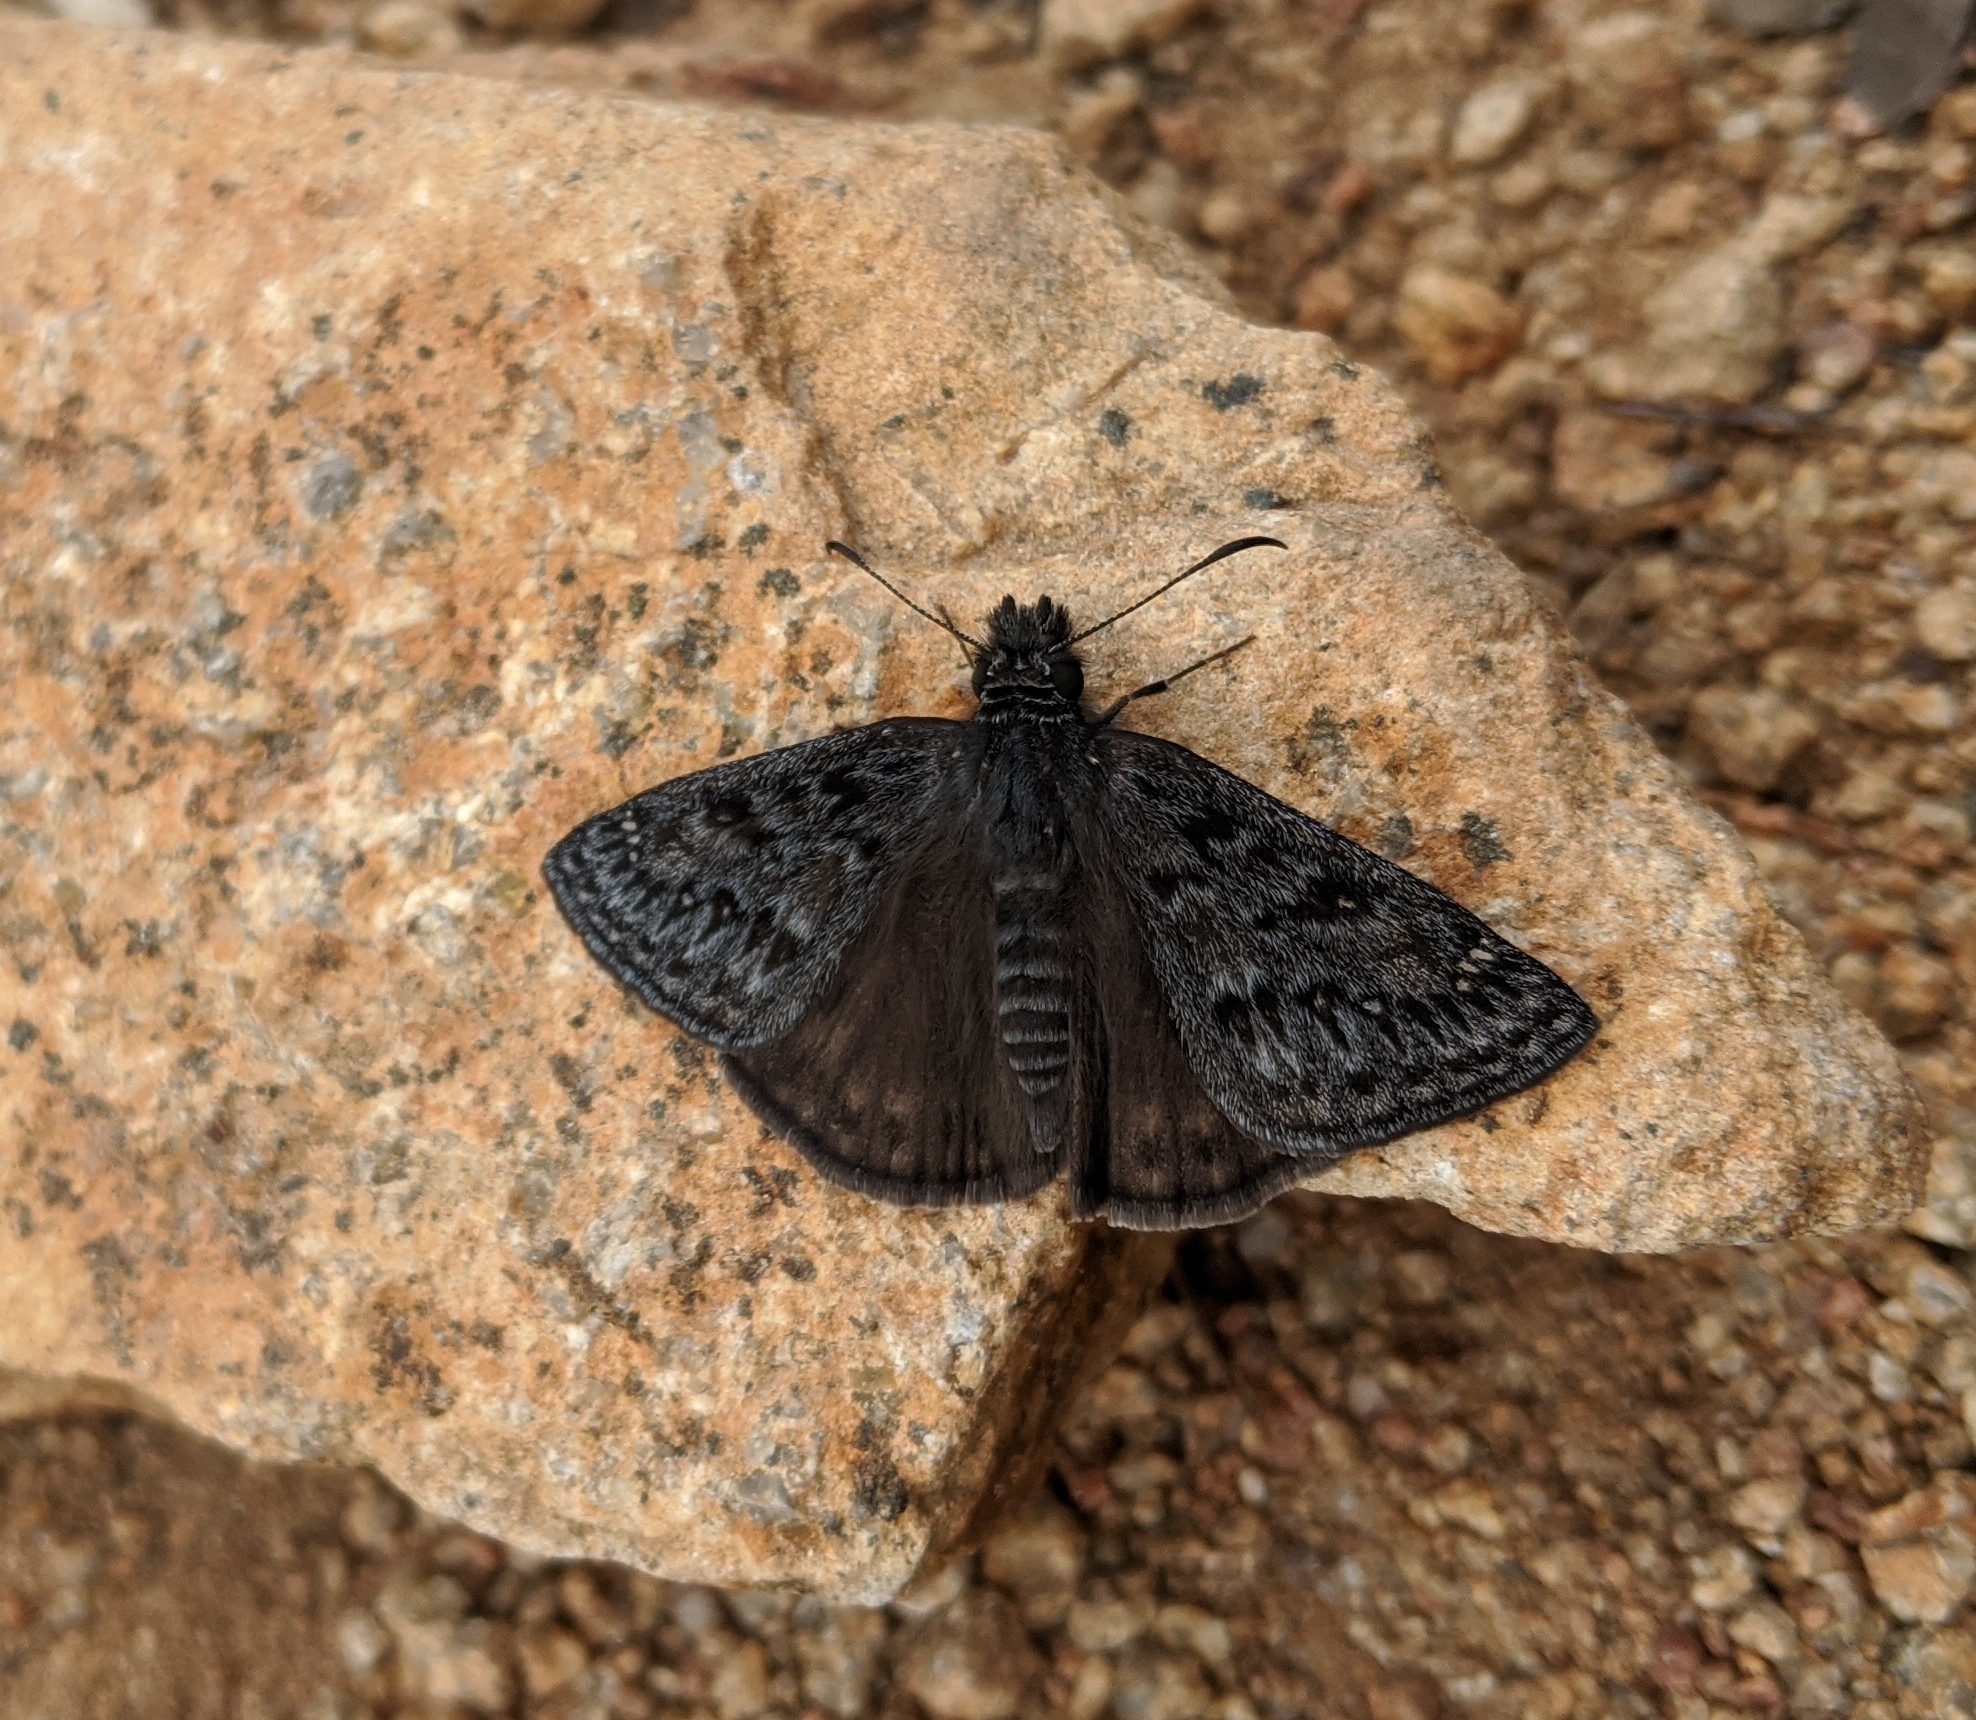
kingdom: Animalia
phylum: Arthropoda
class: Insecta
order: Lepidoptera
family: Hesperiidae
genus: Erynnis
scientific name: Erynnis propertius
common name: Propertius duskywing
